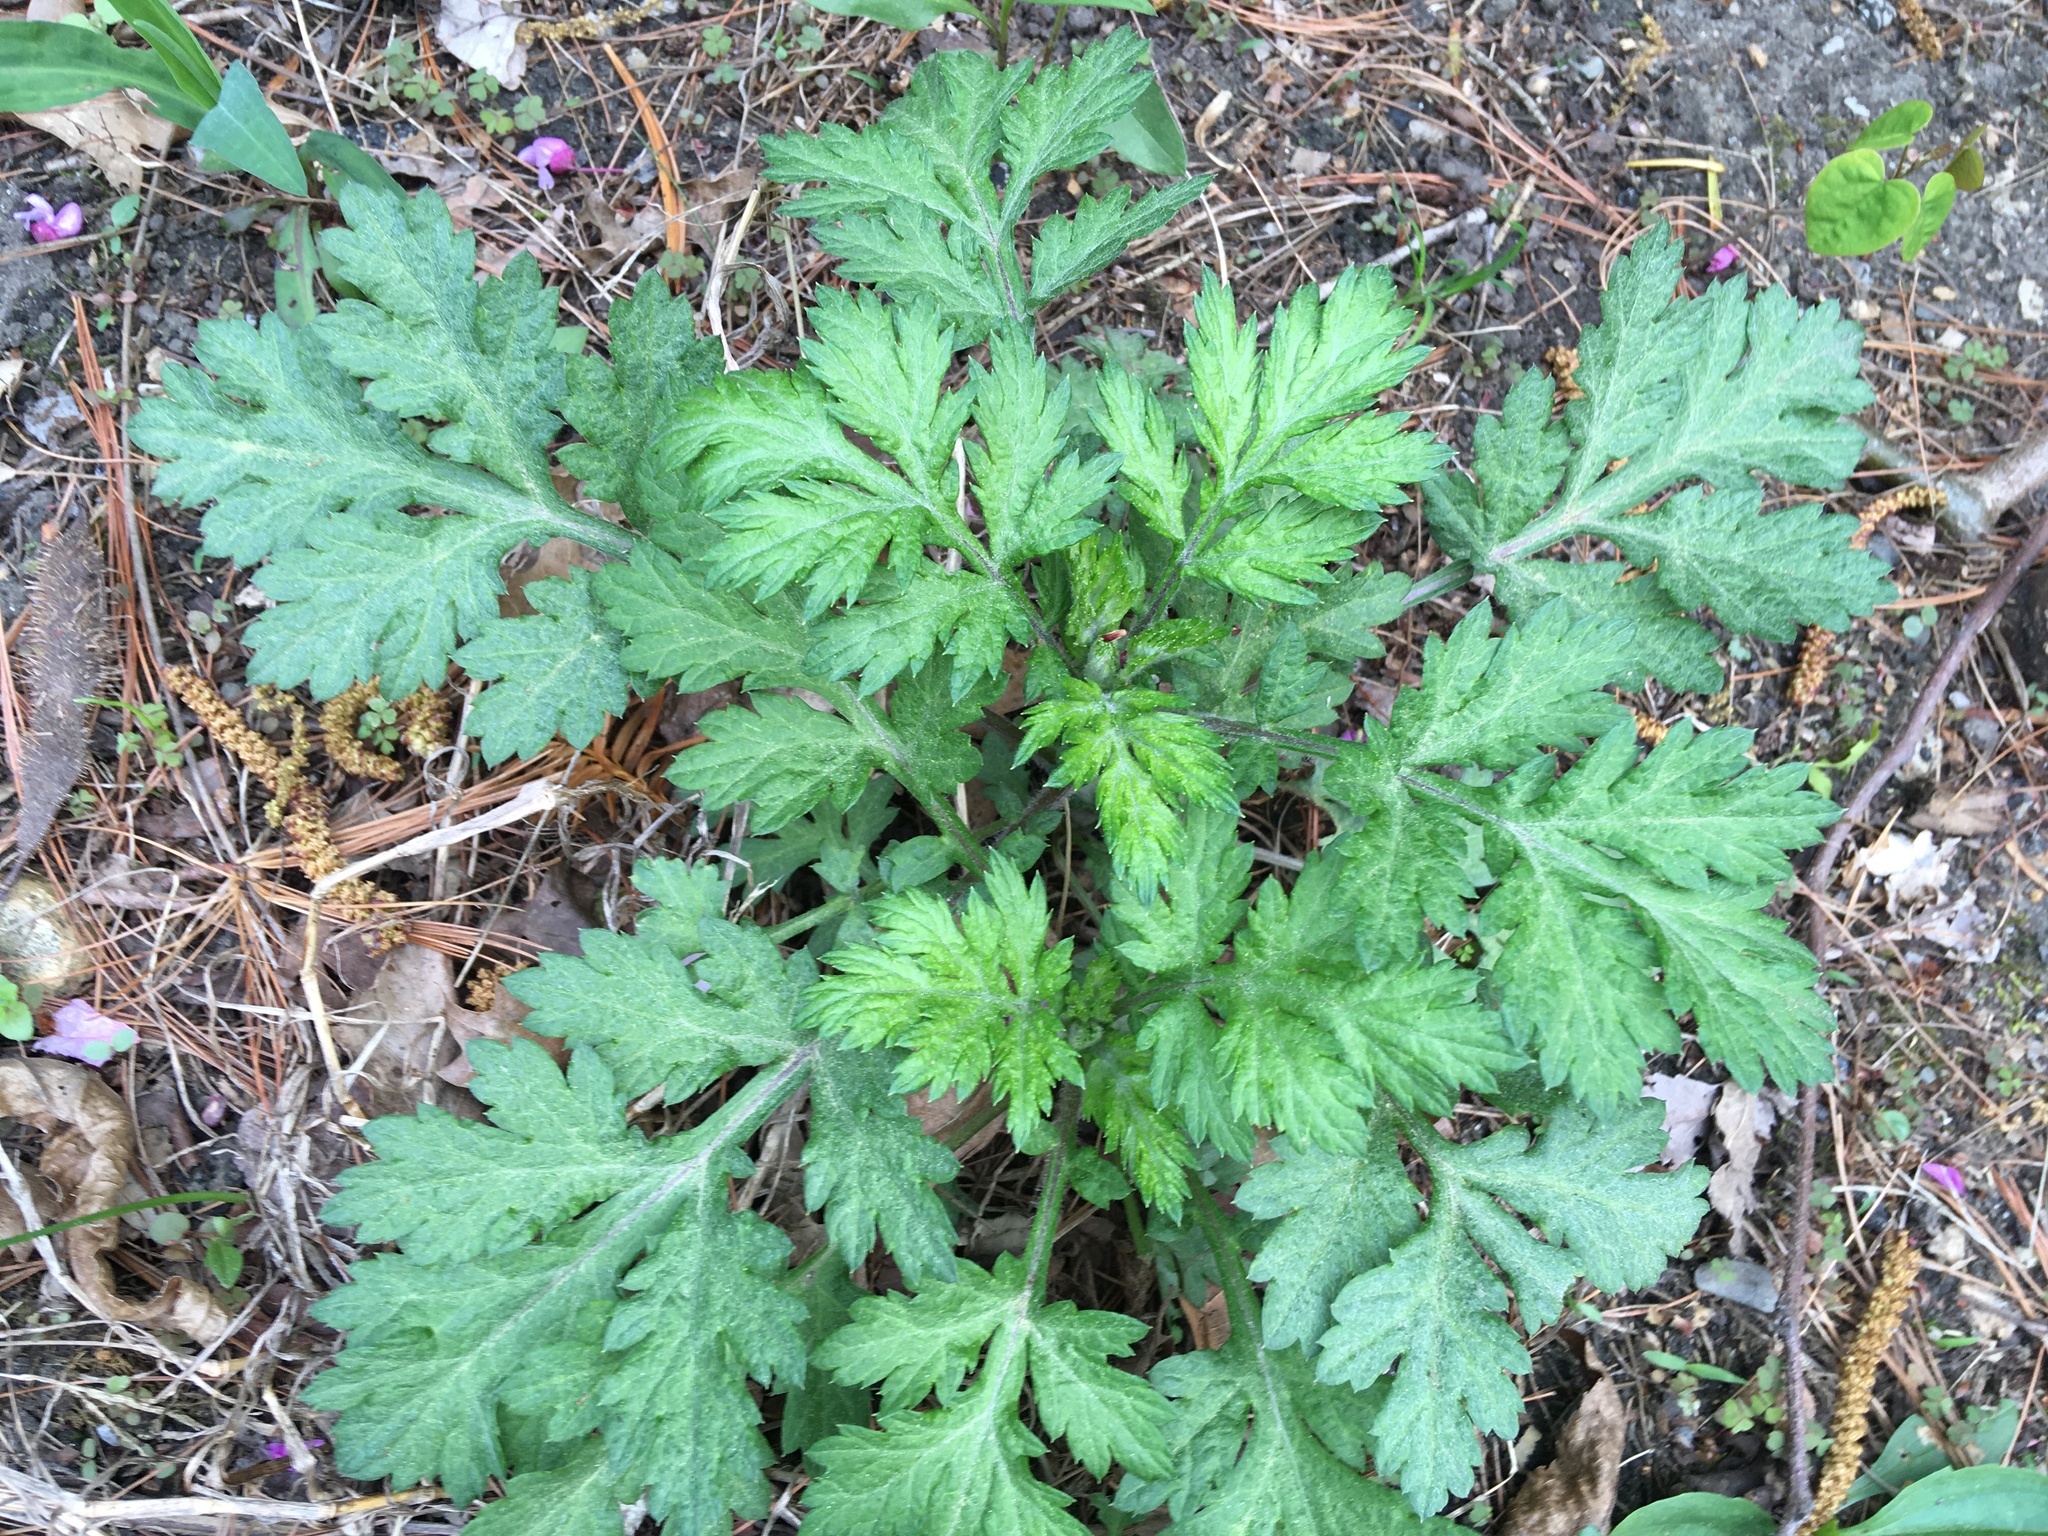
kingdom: Plantae
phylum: Tracheophyta
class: Magnoliopsida
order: Asterales
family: Asteraceae
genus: Artemisia
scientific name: Artemisia vulgaris
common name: Mugwort
